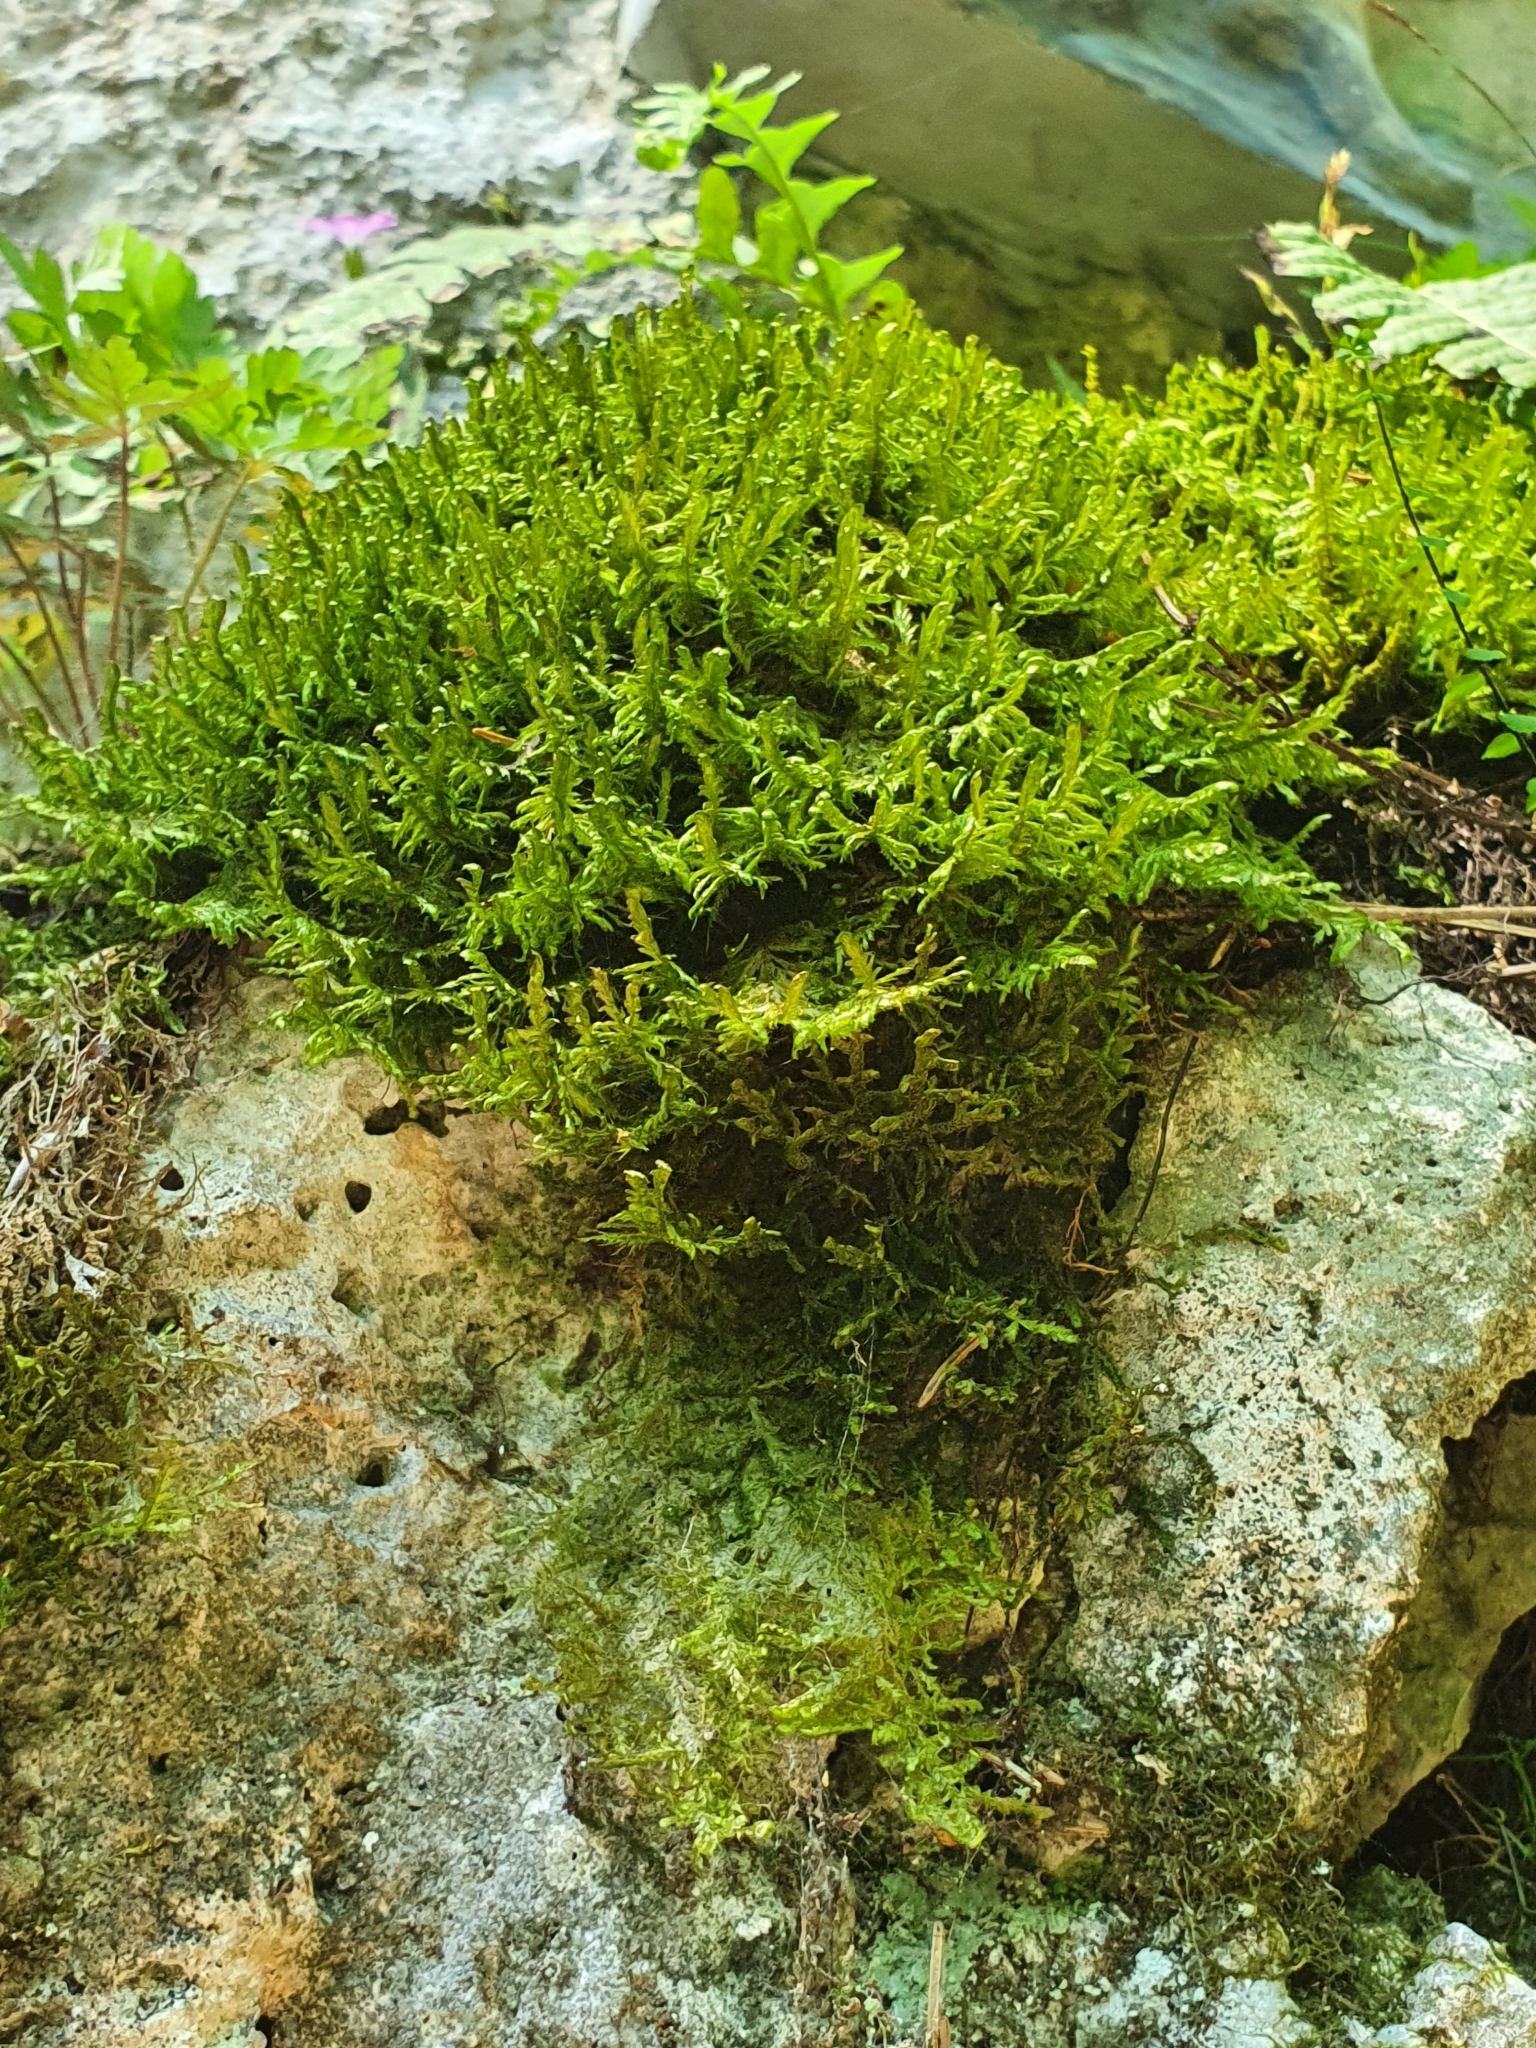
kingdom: Plantae
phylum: Bryophyta
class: Bryopsida
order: Hypnales
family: Neckeraceae
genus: Alleniella
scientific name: Alleniella complanata
